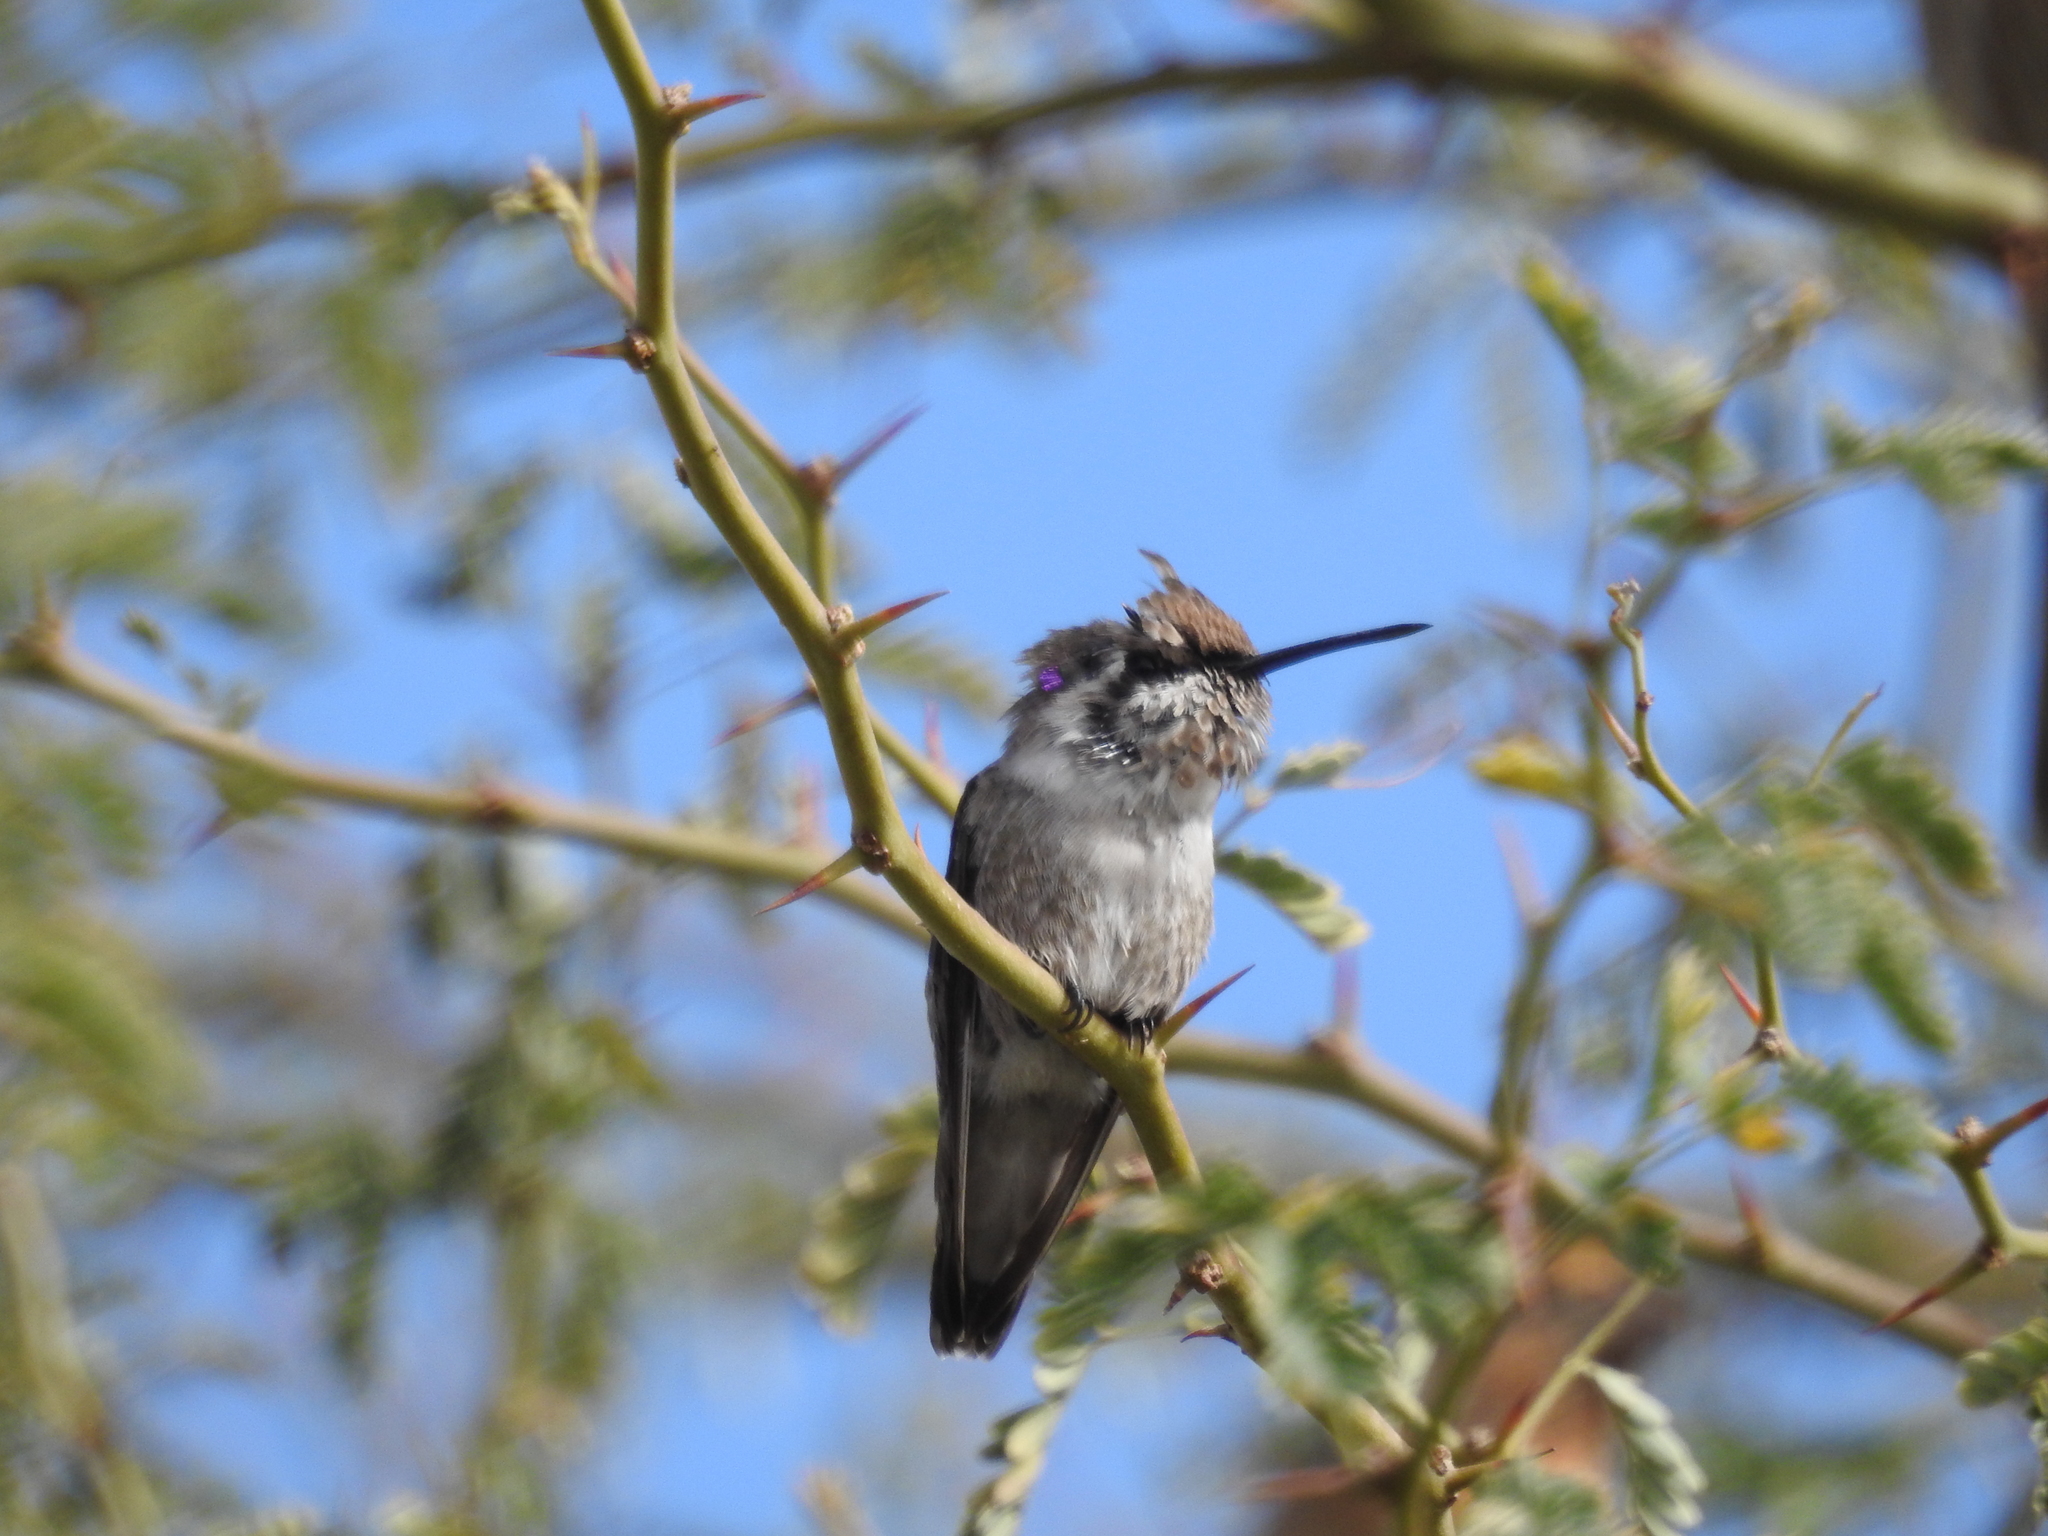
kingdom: Animalia
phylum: Chordata
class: Aves
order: Apodiformes
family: Trochilidae
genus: Calypte
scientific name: Calypte costae
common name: Costa's hummingbird
